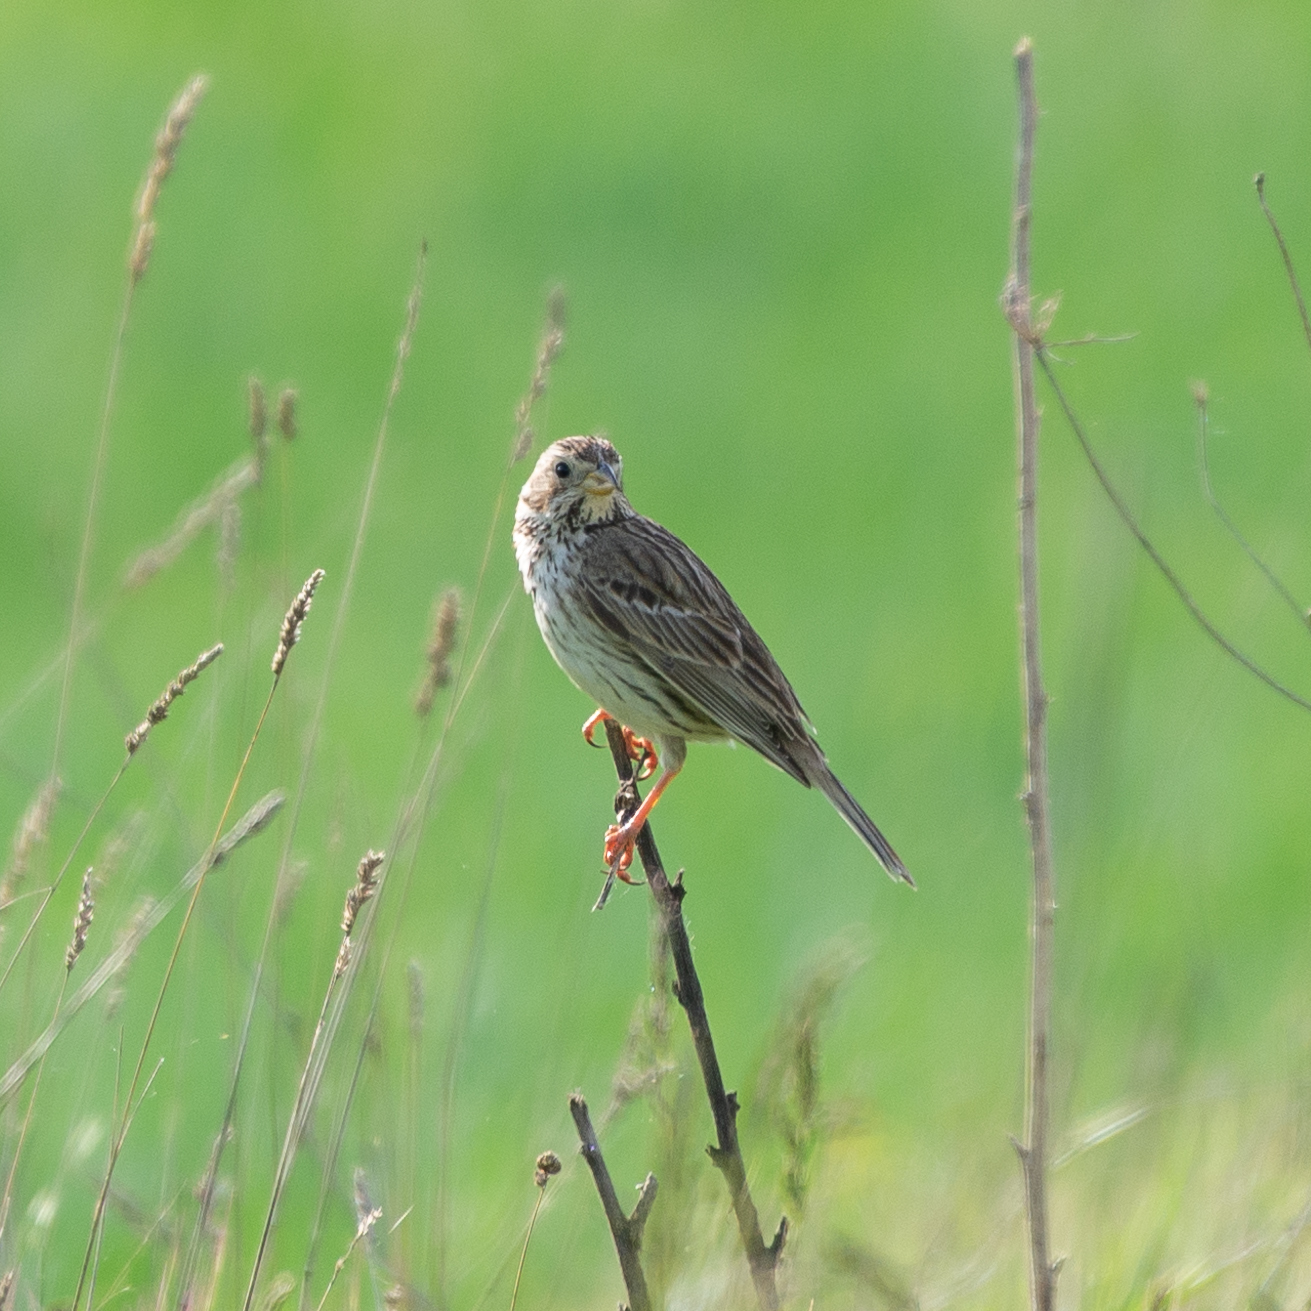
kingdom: Animalia
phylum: Chordata
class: Aves
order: Passeriformes
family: Emberizidae
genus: Emberiza
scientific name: Emberiza calandra
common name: Corn bunting
